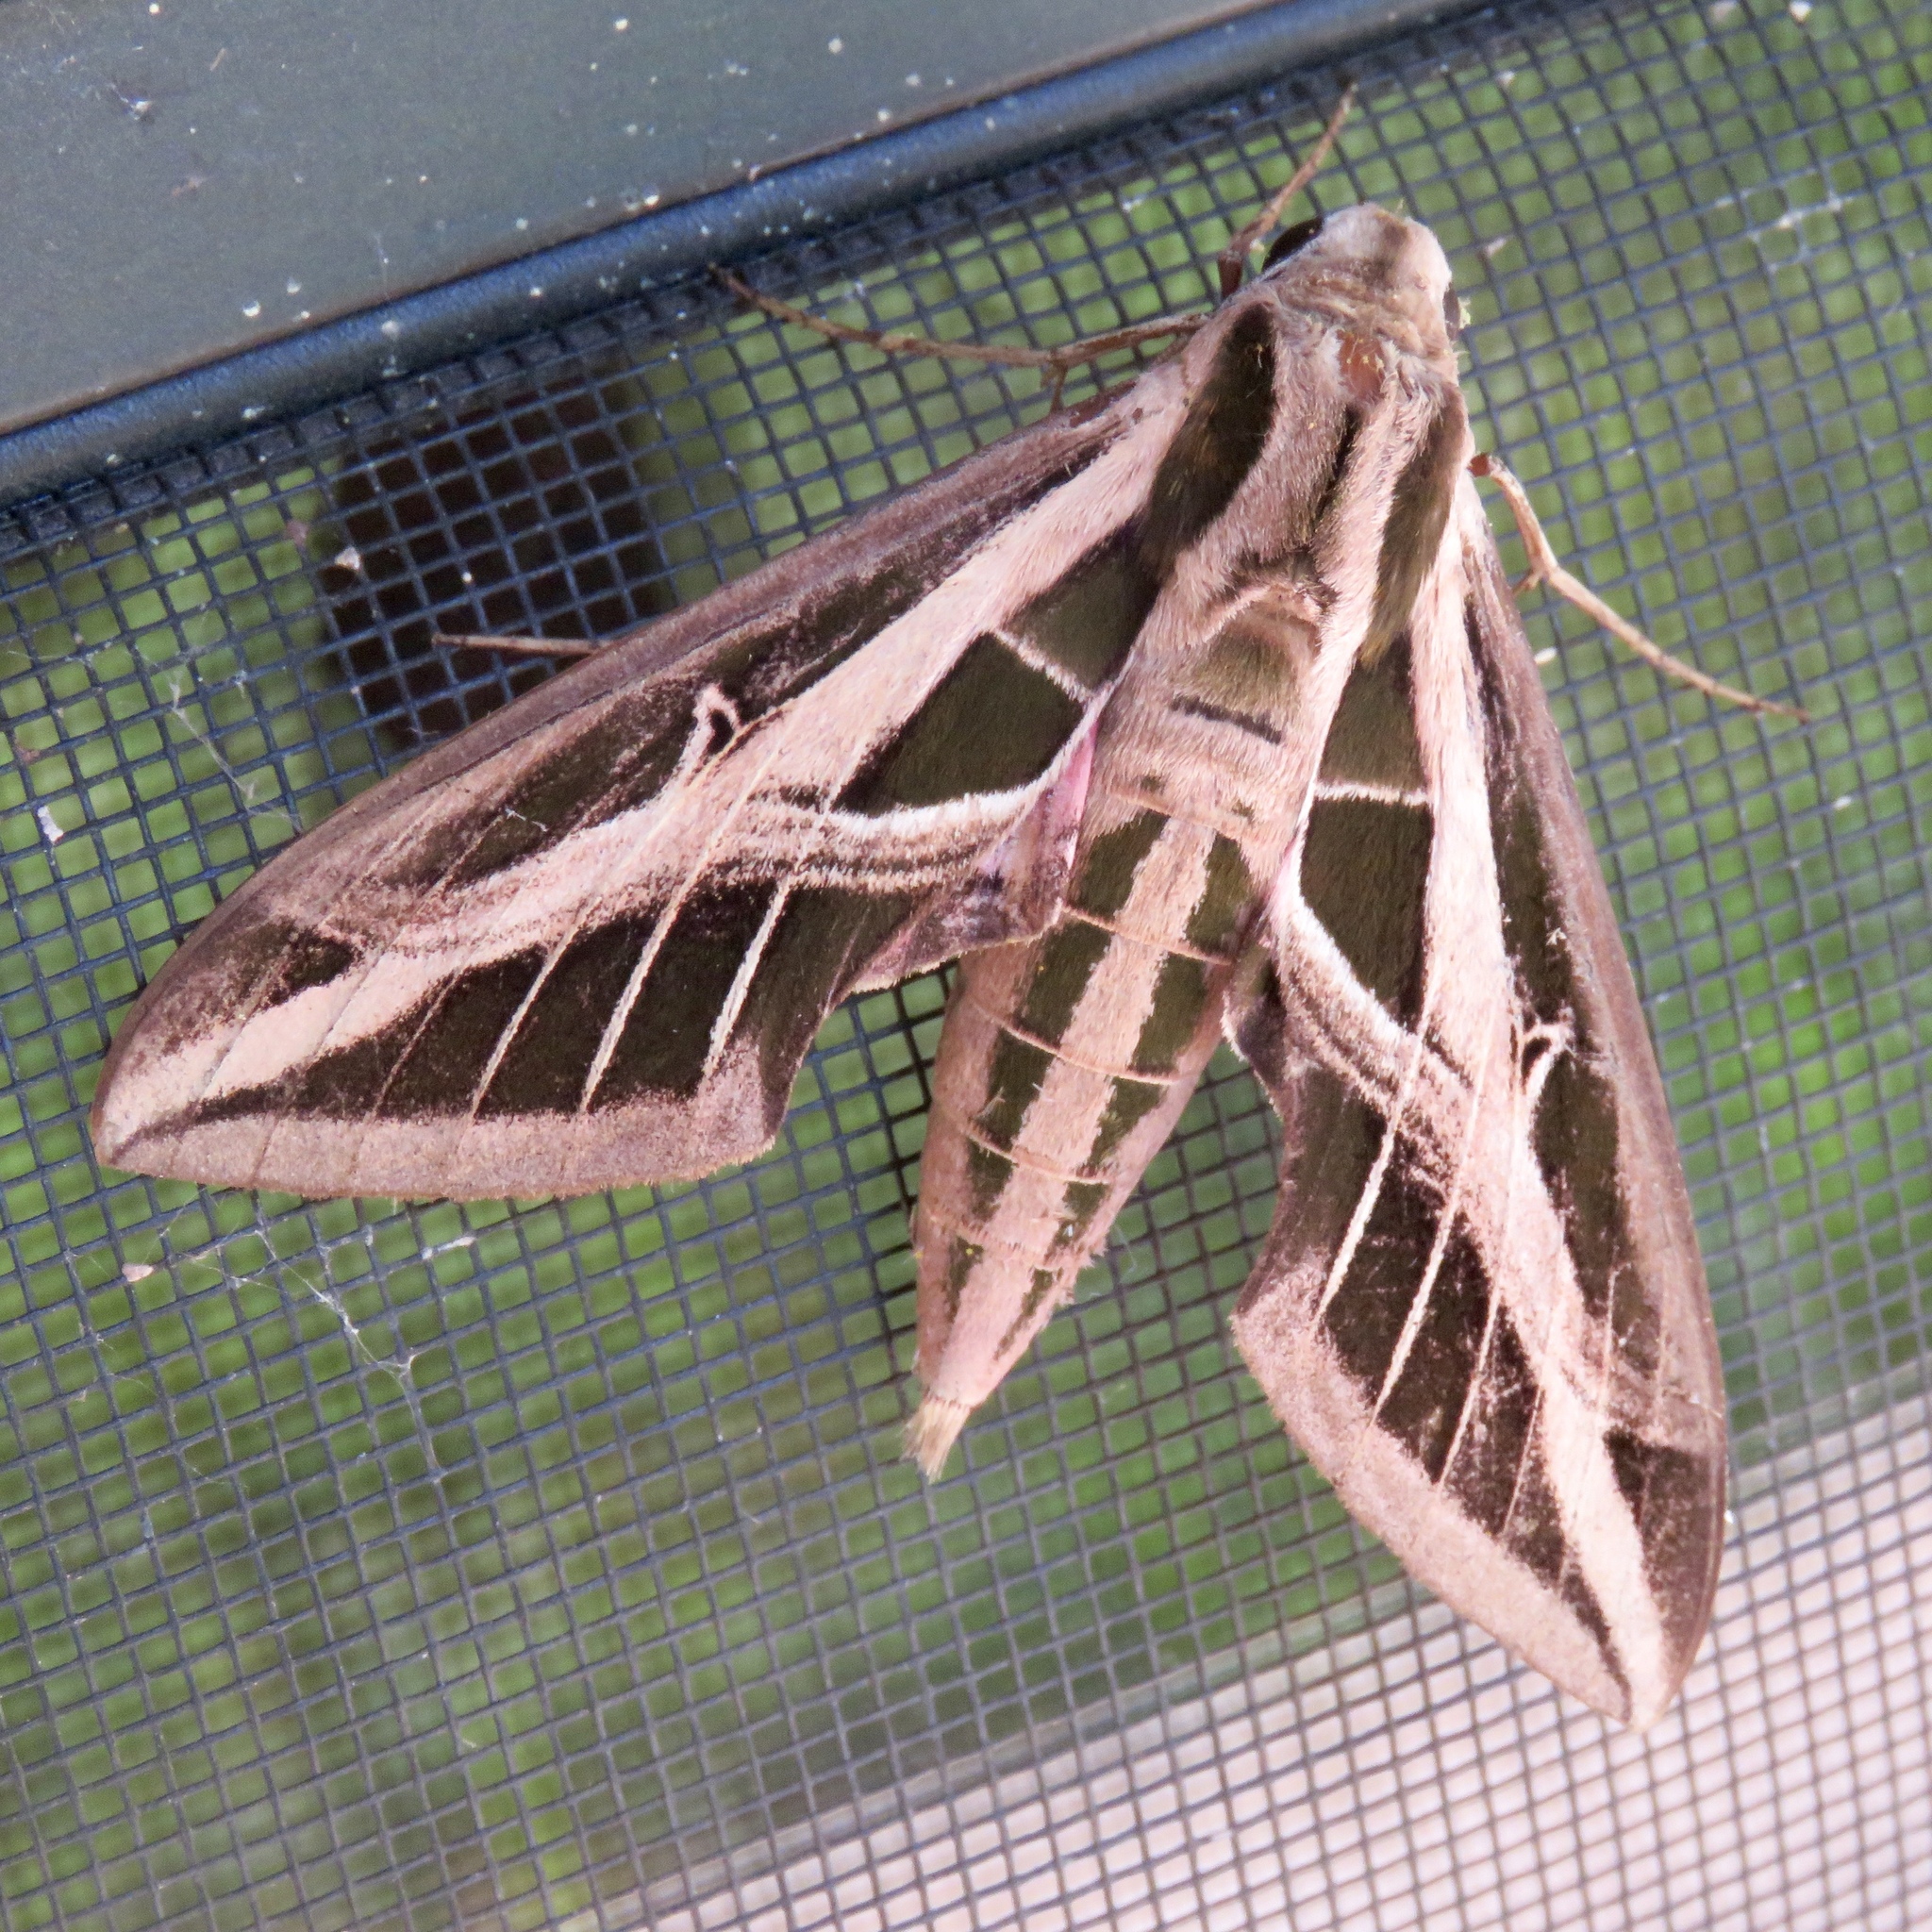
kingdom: Animalia
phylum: Arthropoda
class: Insecta
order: Lepidoptera
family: Sphingidae
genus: Eumorpha
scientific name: Eumorpha fasciatus
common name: Banded sphinx
